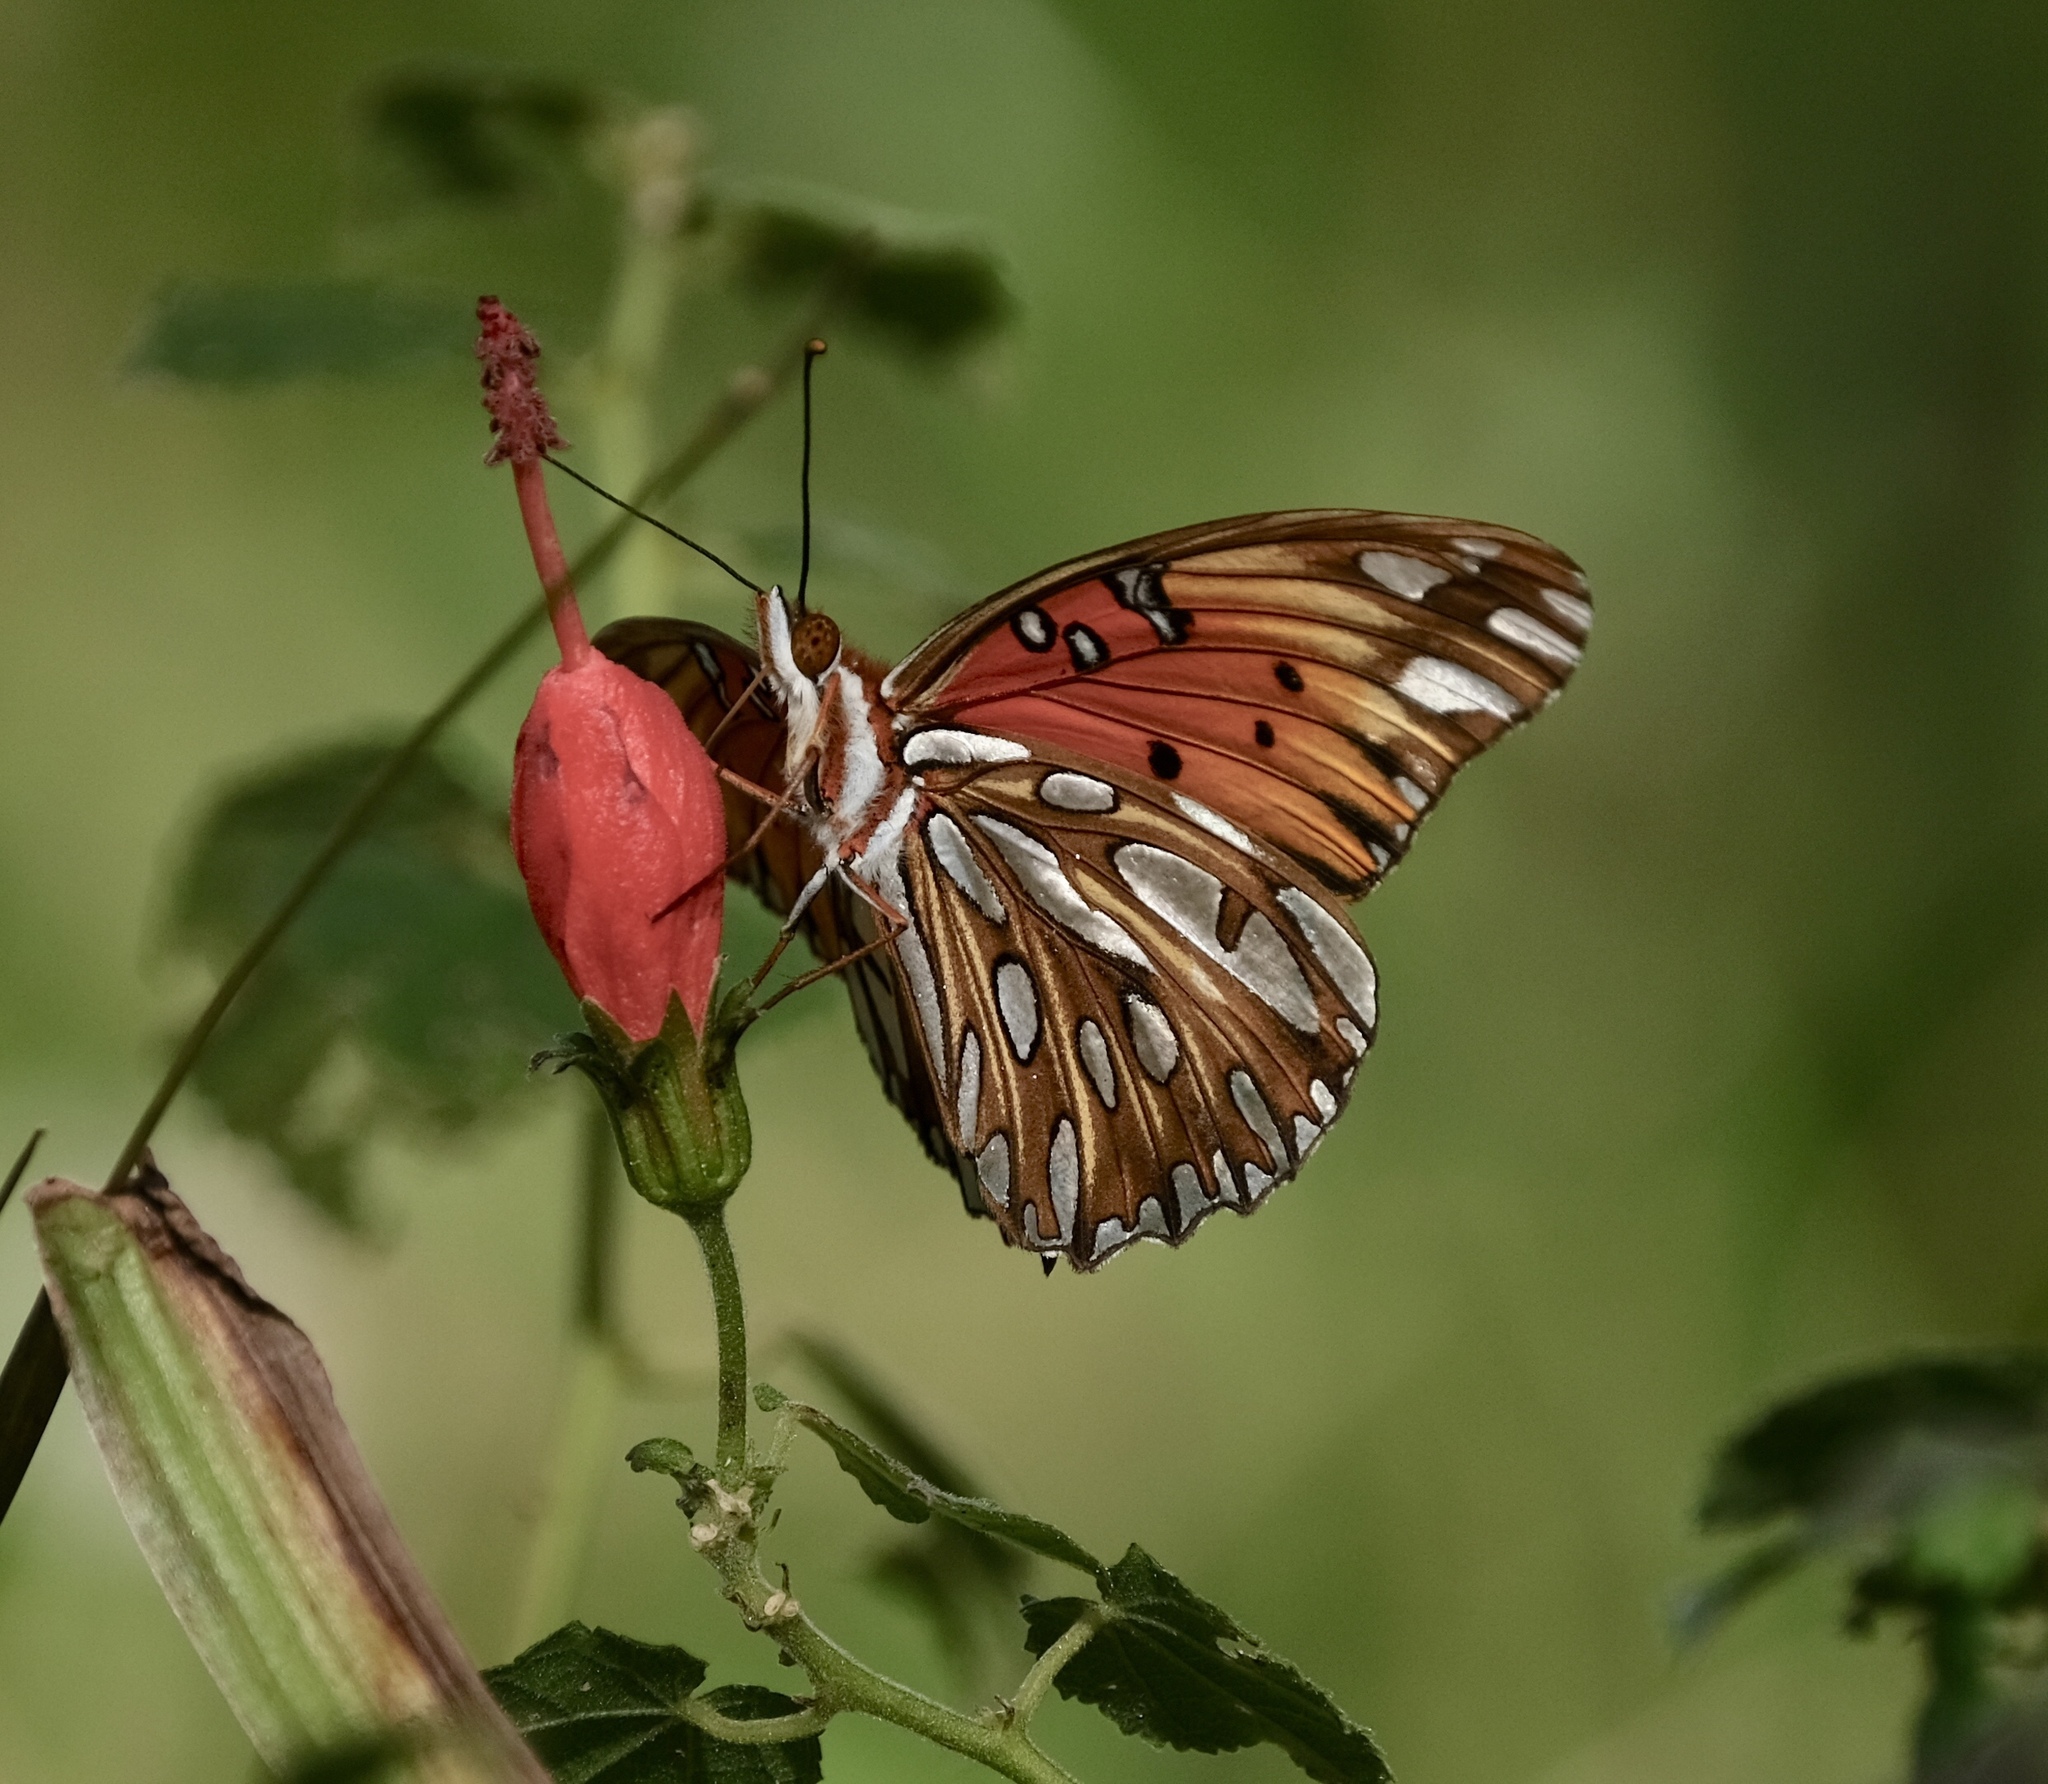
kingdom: Animalia
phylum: Arthropoda
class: Insecta
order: Lepidoptera
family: Nymphalidae
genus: Dione
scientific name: Dione vanillae
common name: Gulf fritillary
